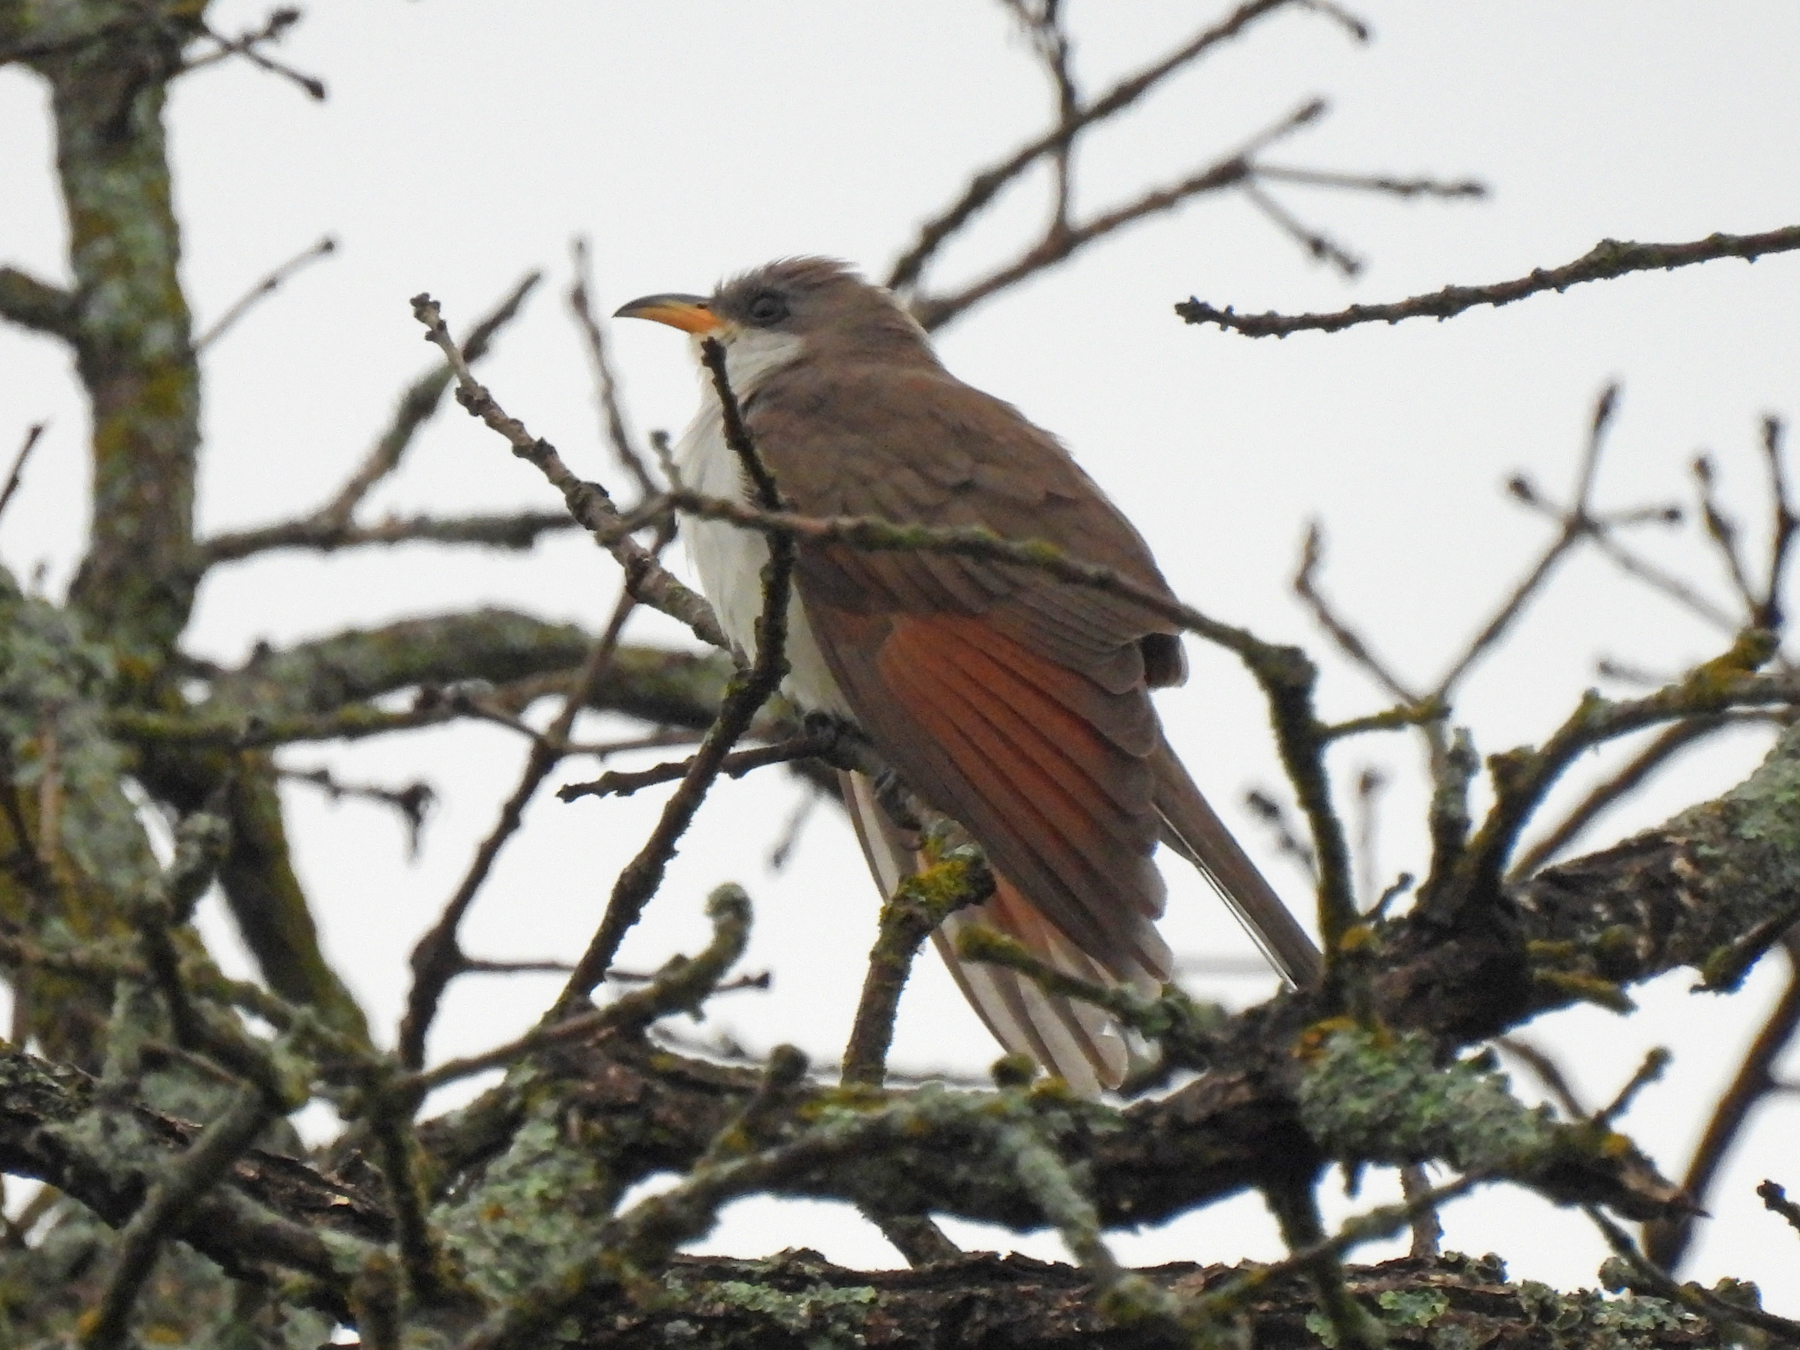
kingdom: Animalia
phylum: Chordata
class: Aves
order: Cuculiformes
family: Cuculidae
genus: Coccyzus
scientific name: Coccyzus americanus
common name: Yellow-billed cuckoo
